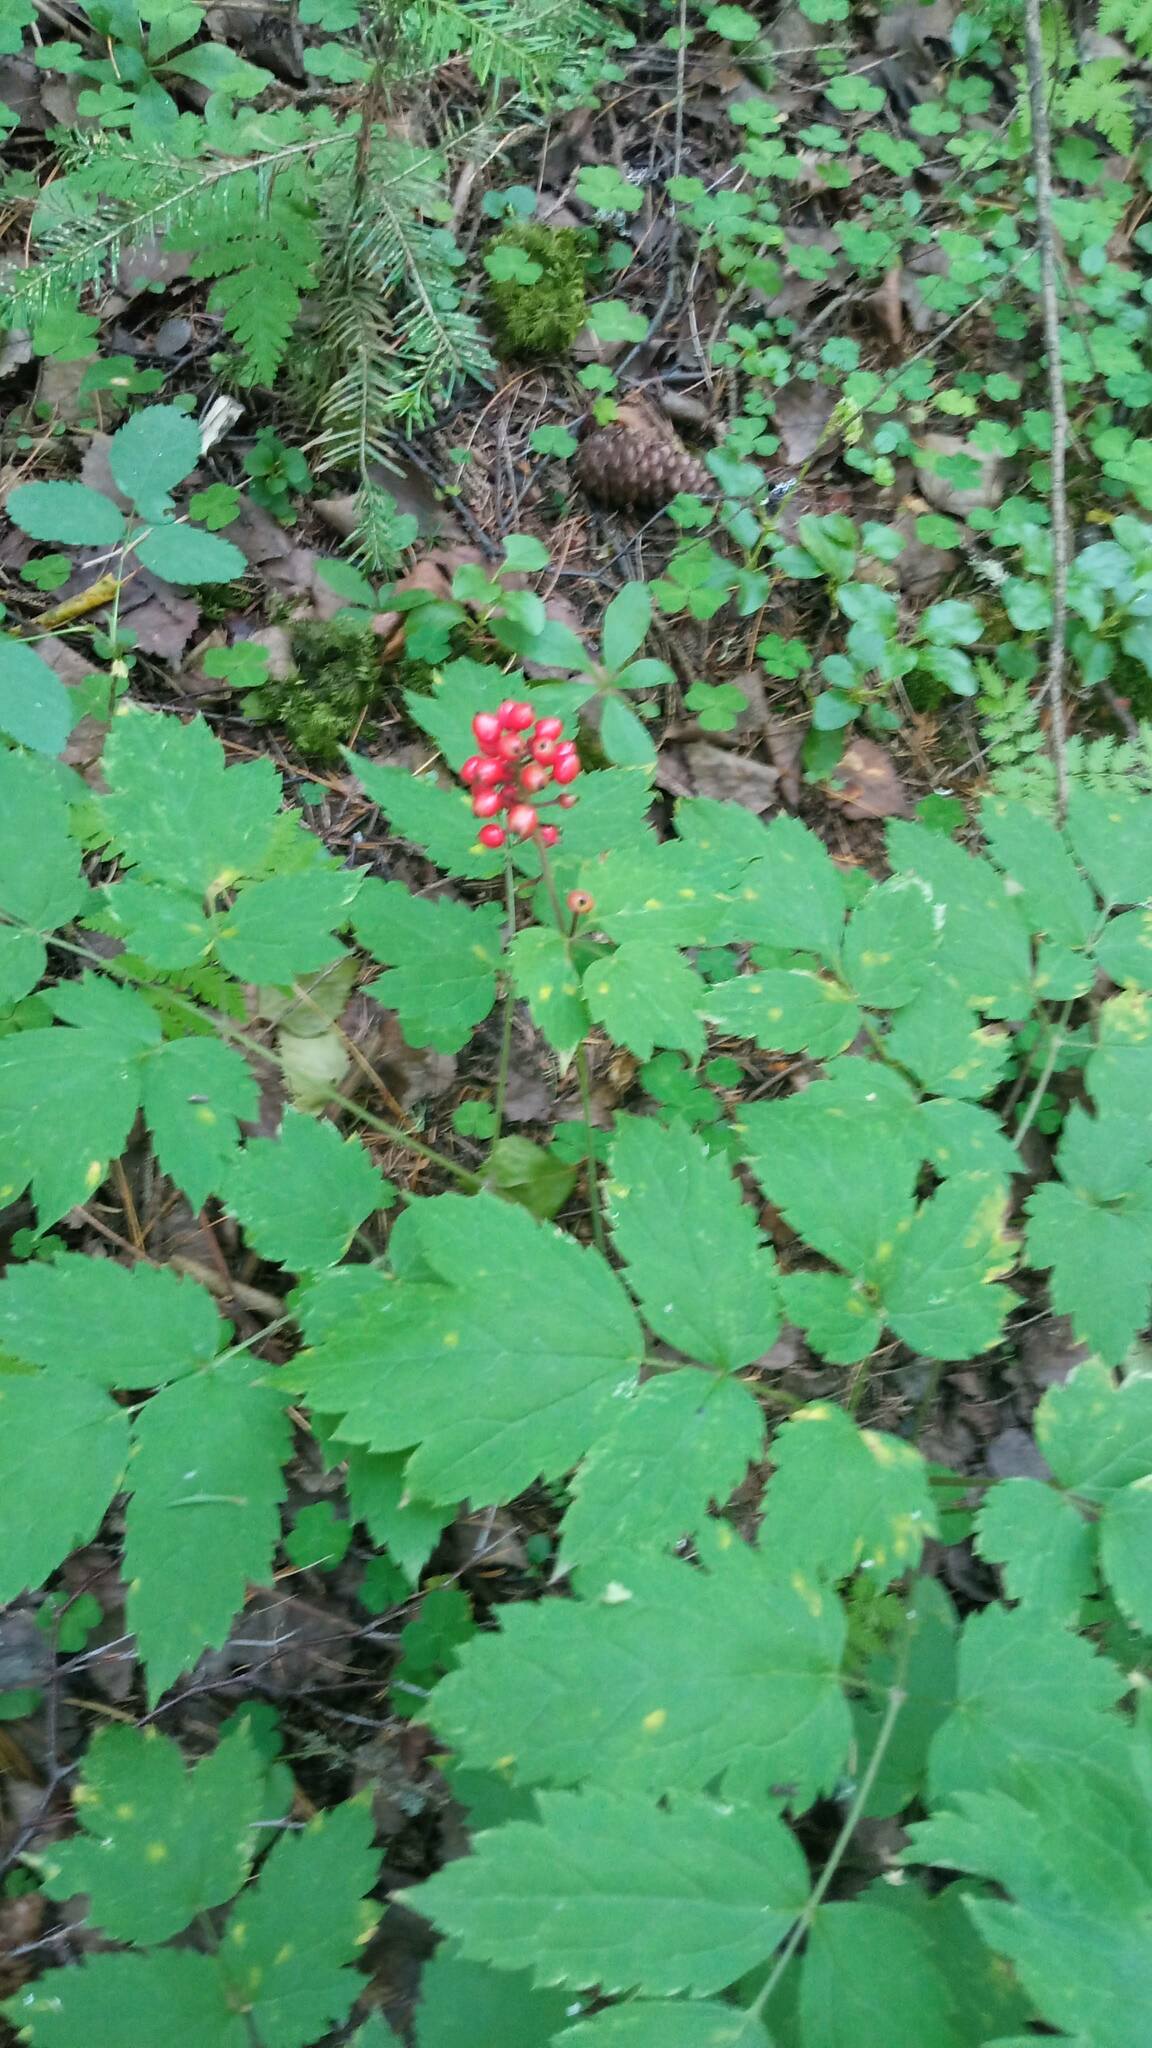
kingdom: Plantae
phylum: Tracheophyta
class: Magnoliopsida
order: Ranunculales
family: Ranunculaceae
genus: Actaea
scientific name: Actaea erythrocarpa
